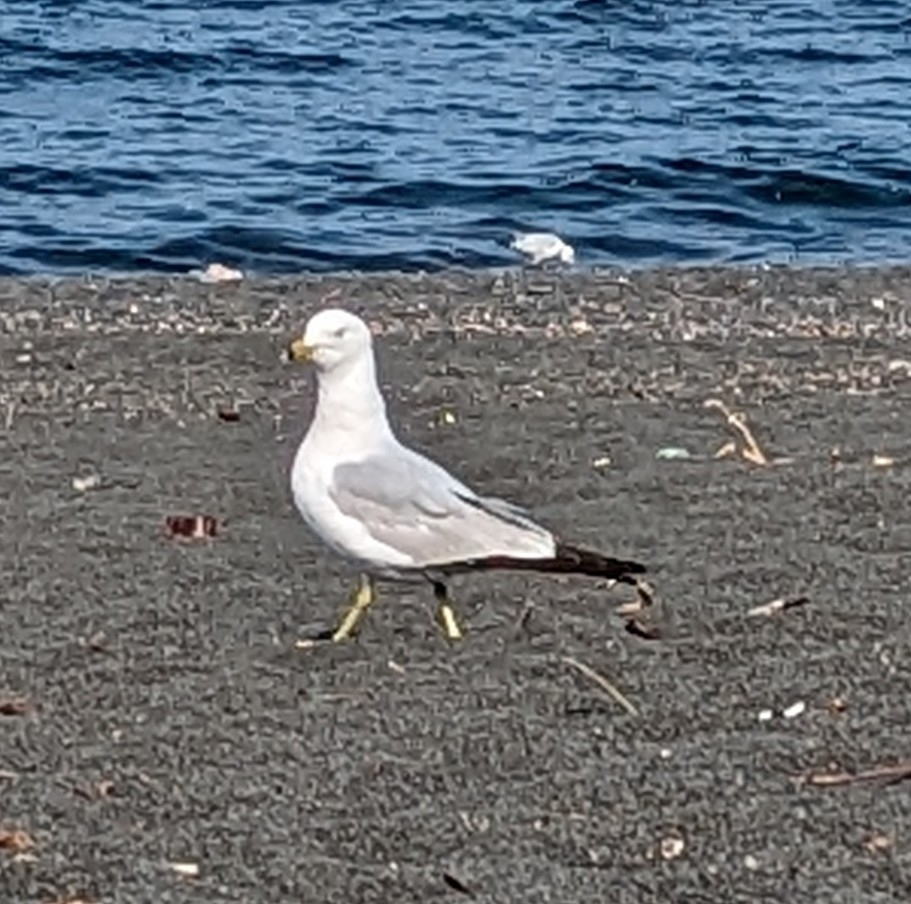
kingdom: Animalia
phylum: Chordata
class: Aves
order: Charadriiformes
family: Laridae
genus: Larus
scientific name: Larus delawarensis
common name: Ring-billed gull
